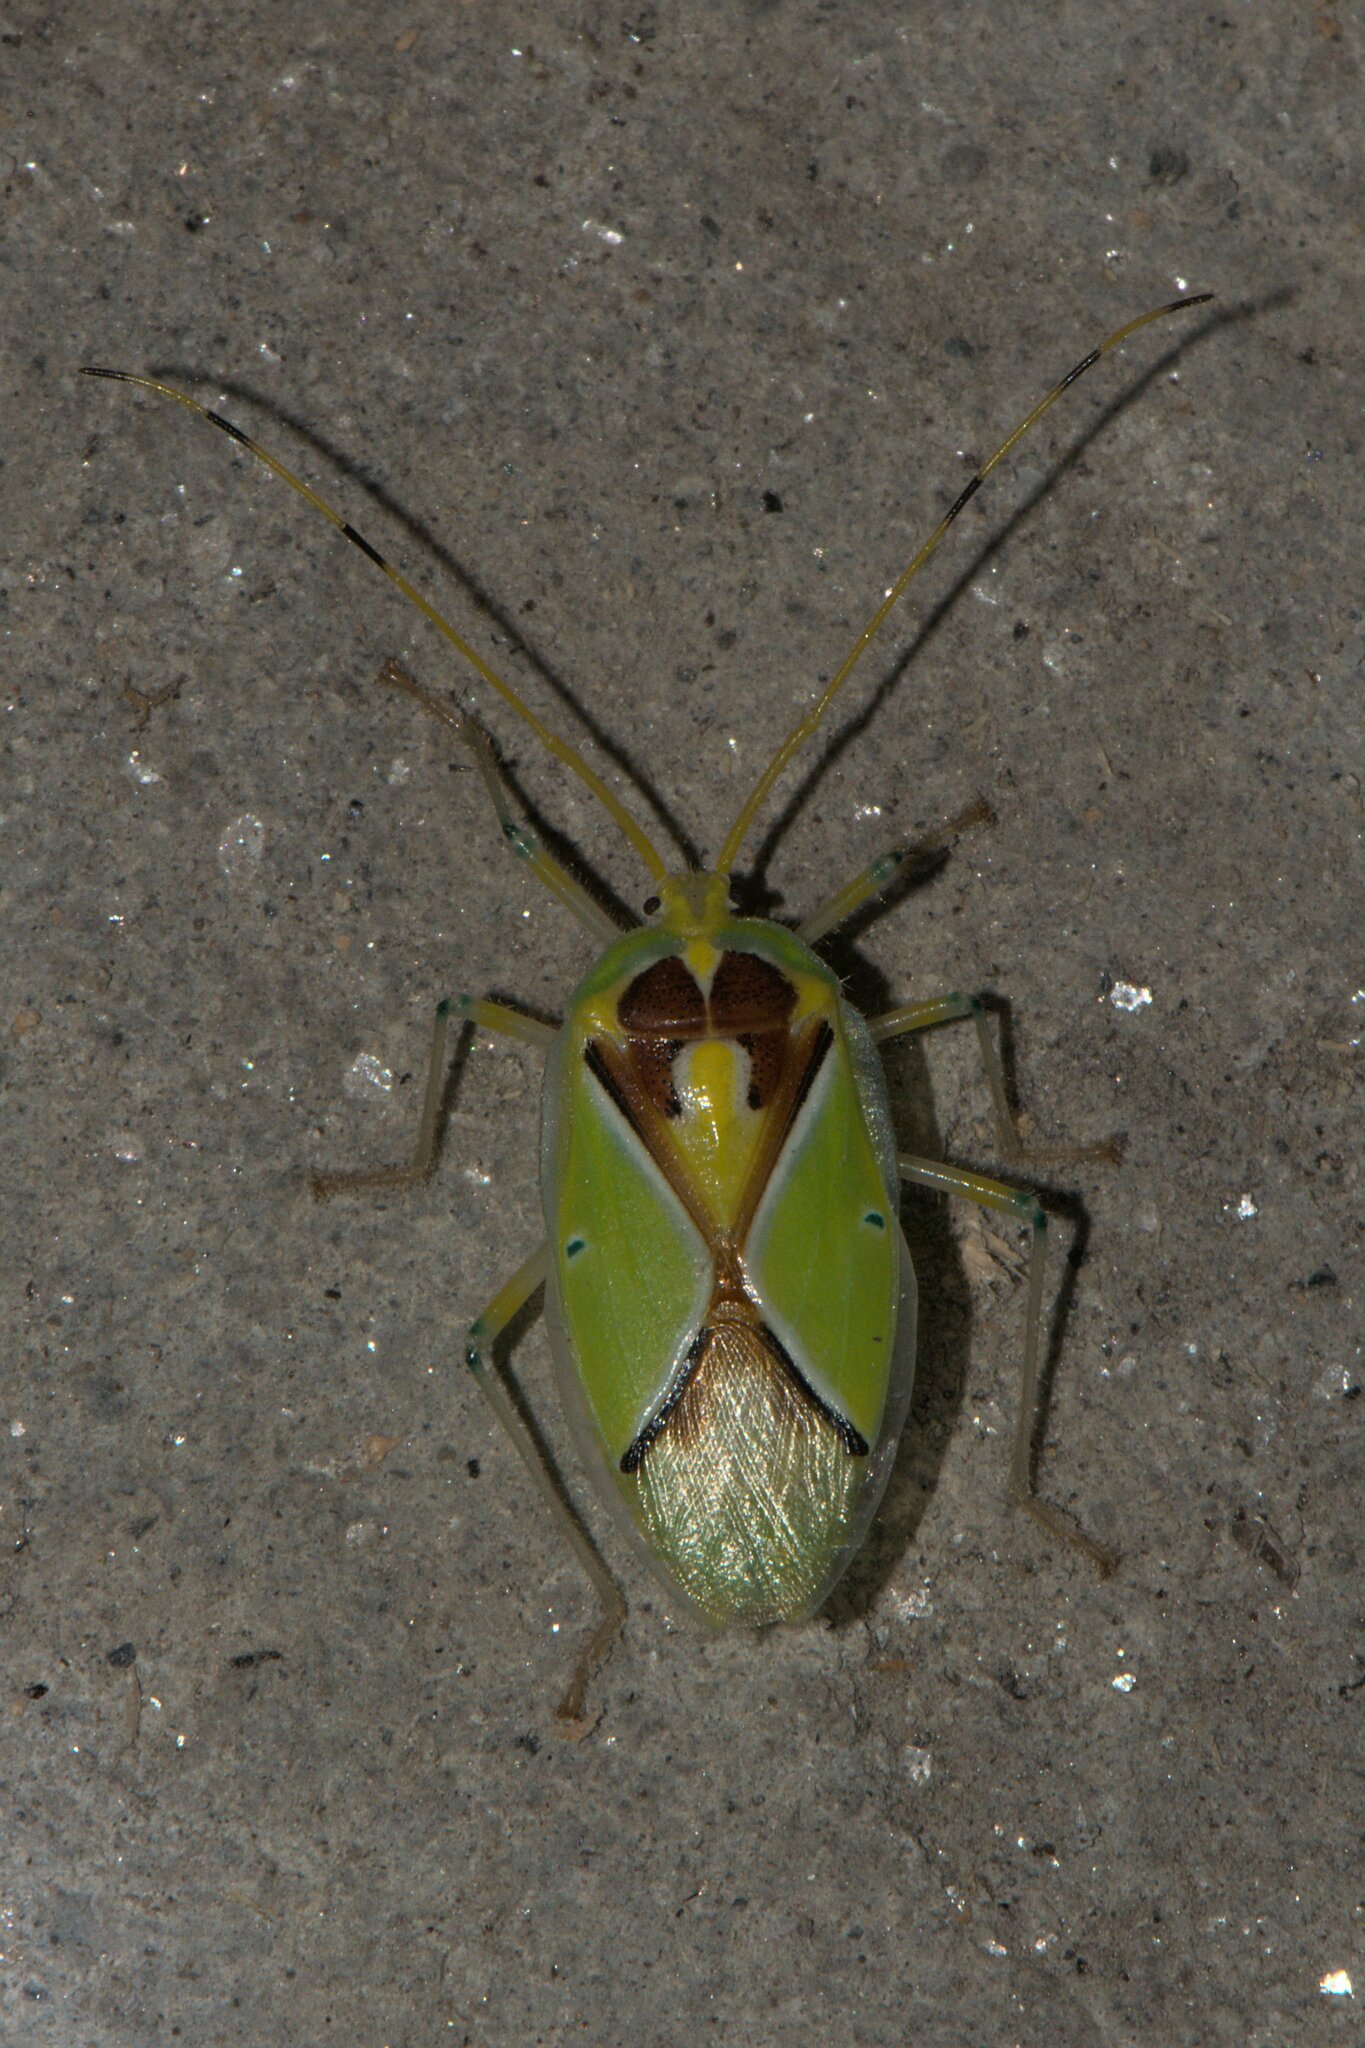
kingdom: Animalia
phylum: Arthropoda
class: Insecta
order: Hemiptera
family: Urostylididae
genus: Urolabida
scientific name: Urolabida
